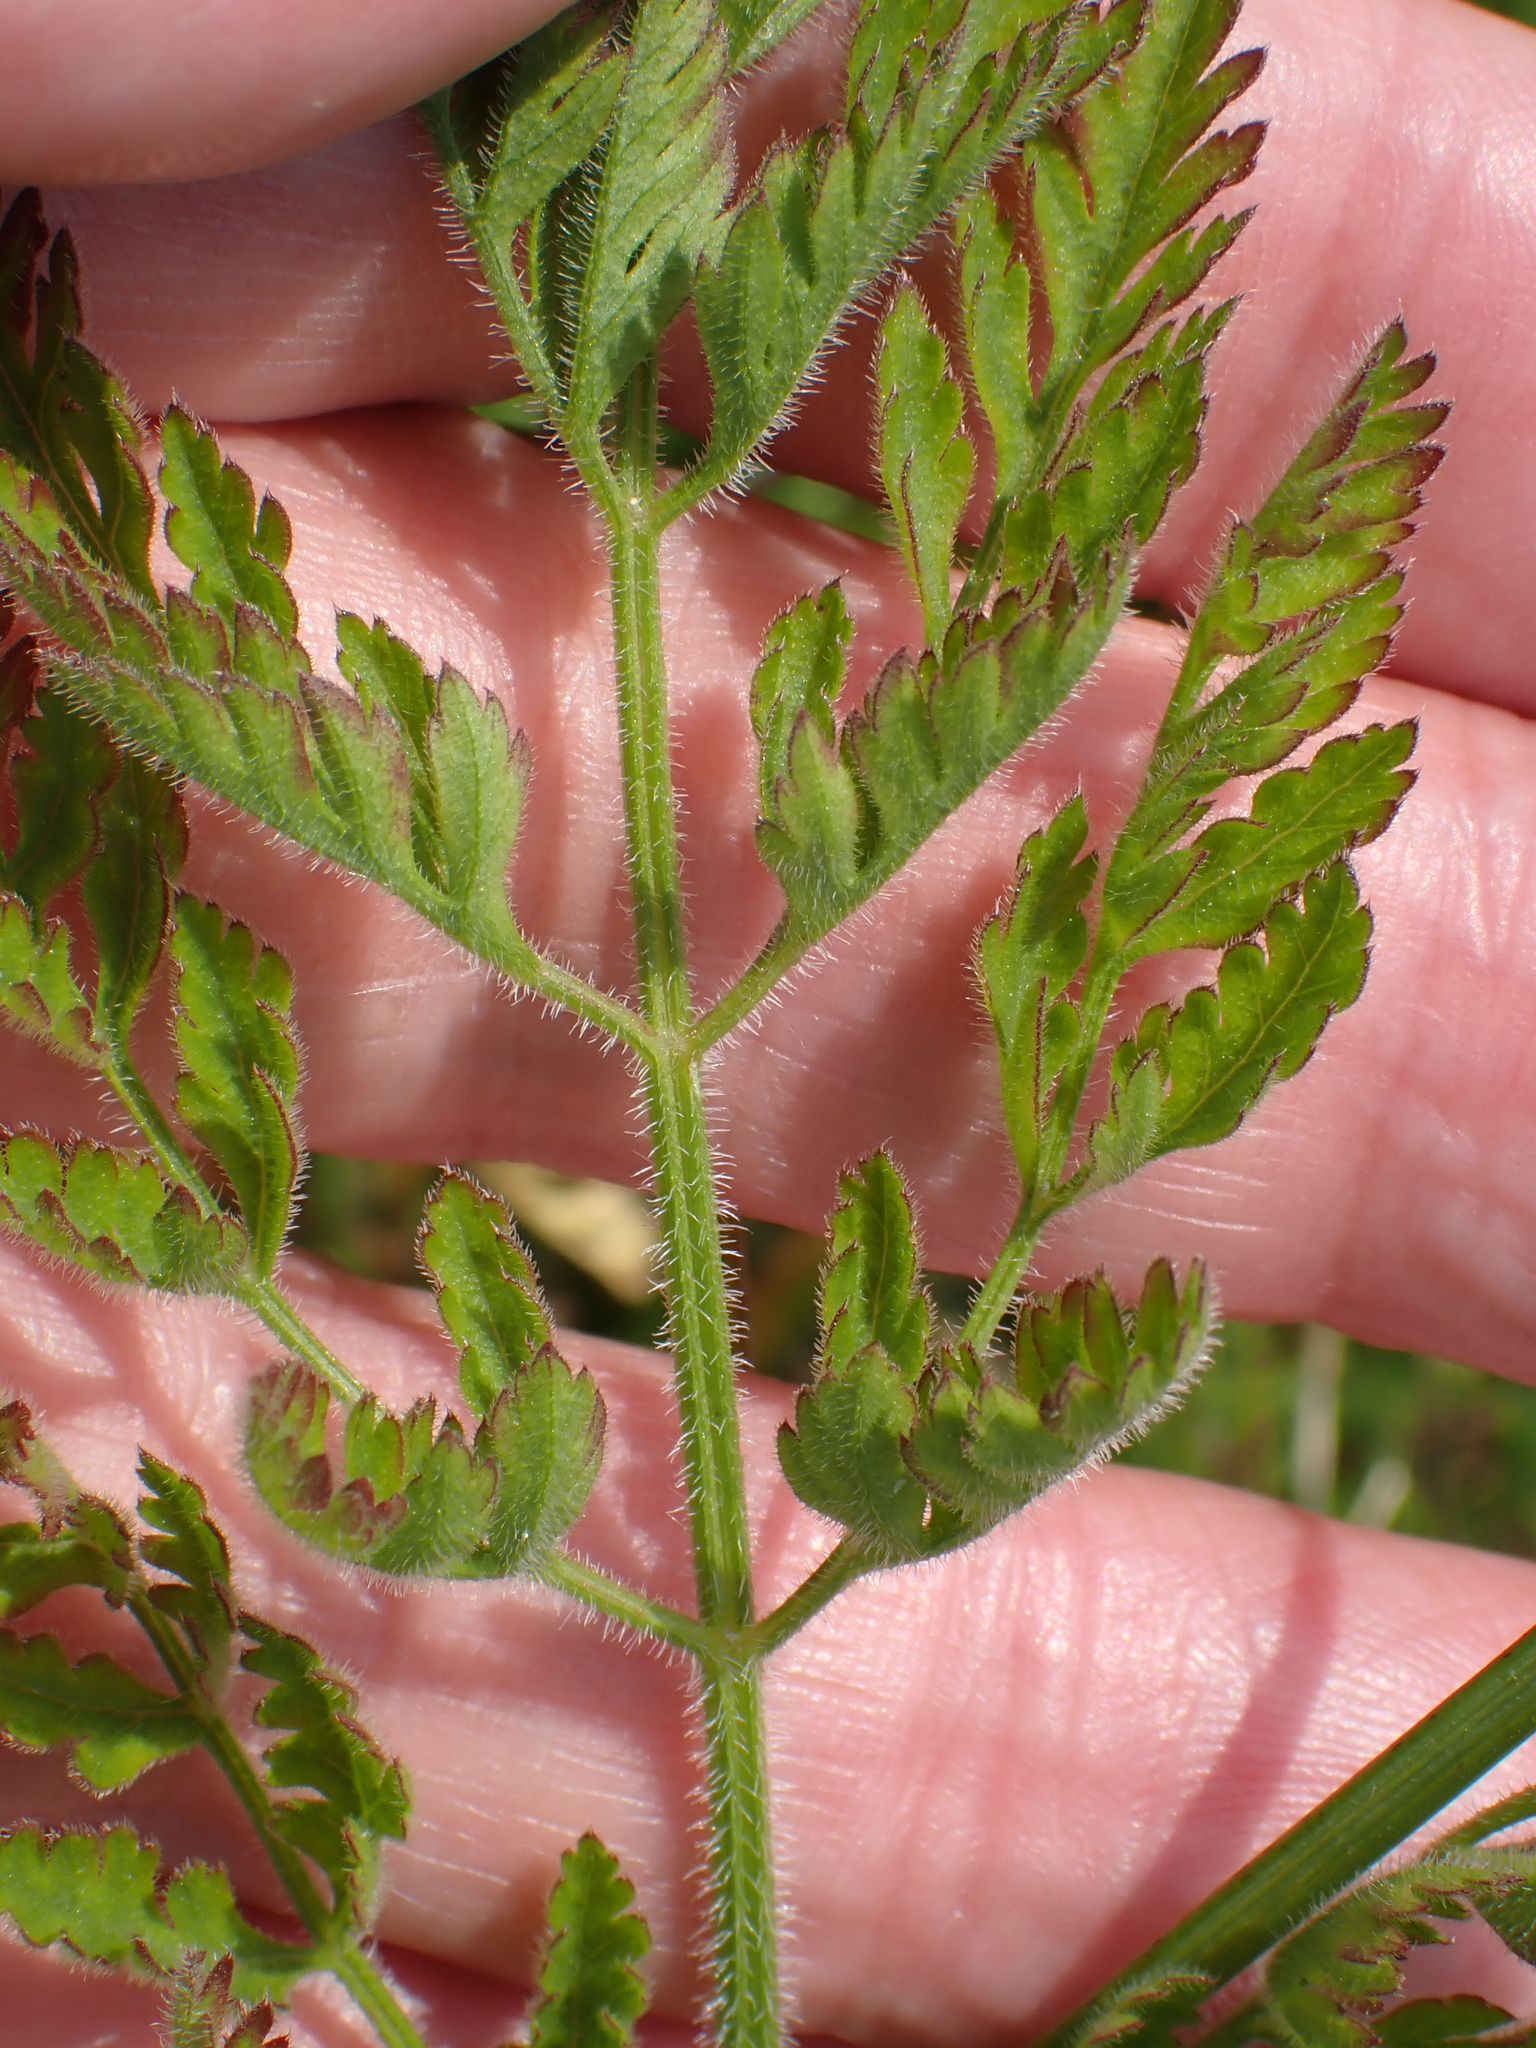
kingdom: Plantae
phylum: Tracheophyta
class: Magnoliopsida
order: Apiales
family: Apiaceae
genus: Daucus
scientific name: Daucus carota
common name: Wild carrot
